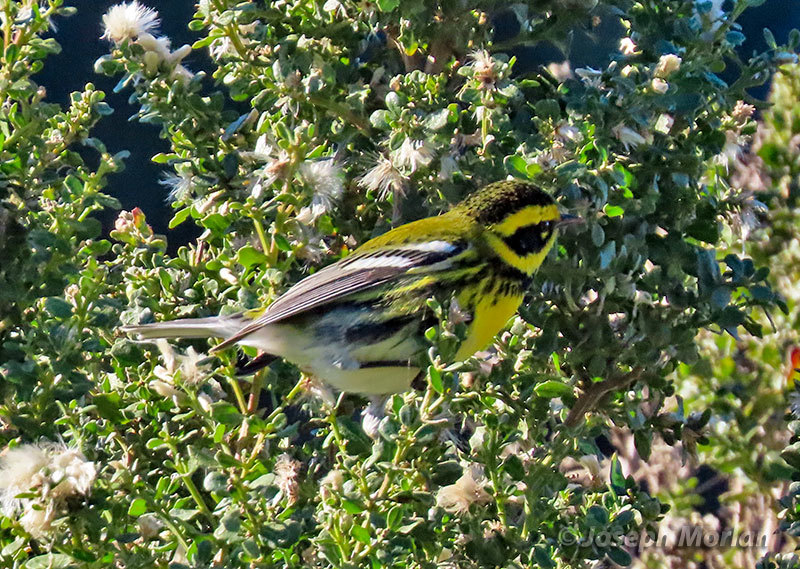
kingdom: Animalia
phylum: Chordata
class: Aves
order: Passeriformes
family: Parulidae
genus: Setophaga
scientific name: Setophaga townsendi
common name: Townsend's warbler
